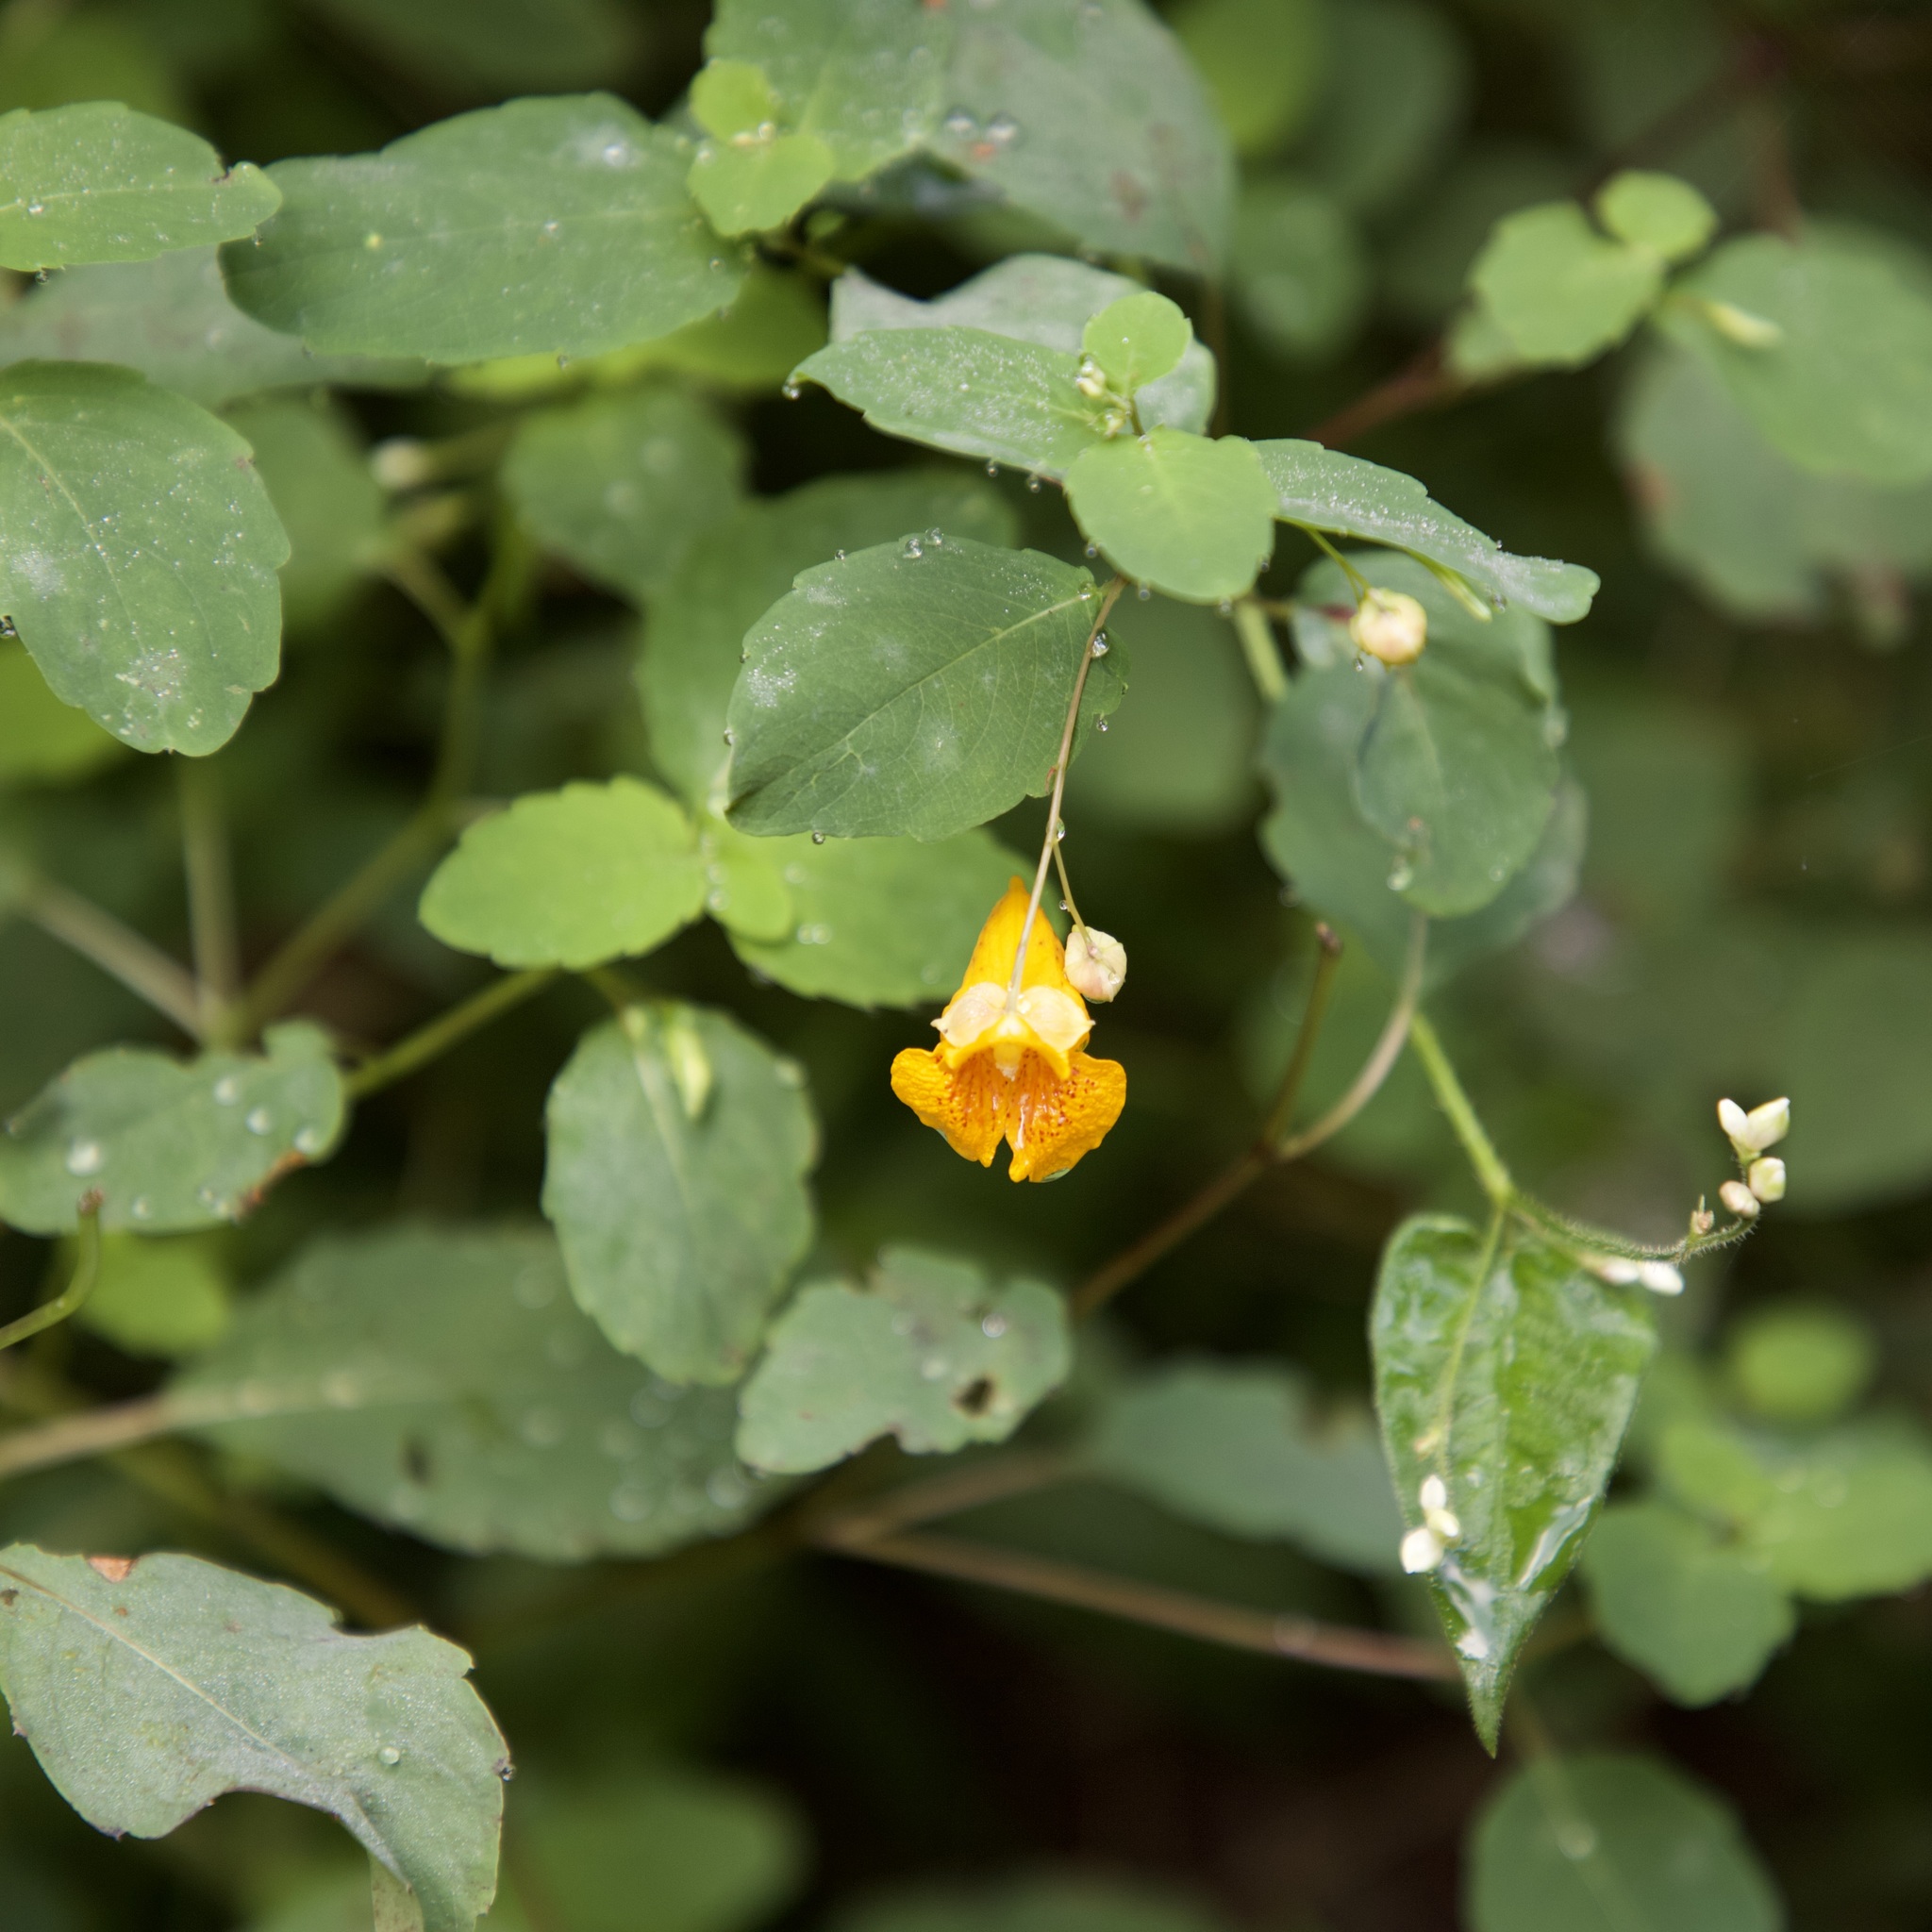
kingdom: Plantae
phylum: Tracheophyta
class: Magnoliopsida
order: Ericales
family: Balsaminaceae
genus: Impatiens
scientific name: Impatiens capensis
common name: Orange balsam
